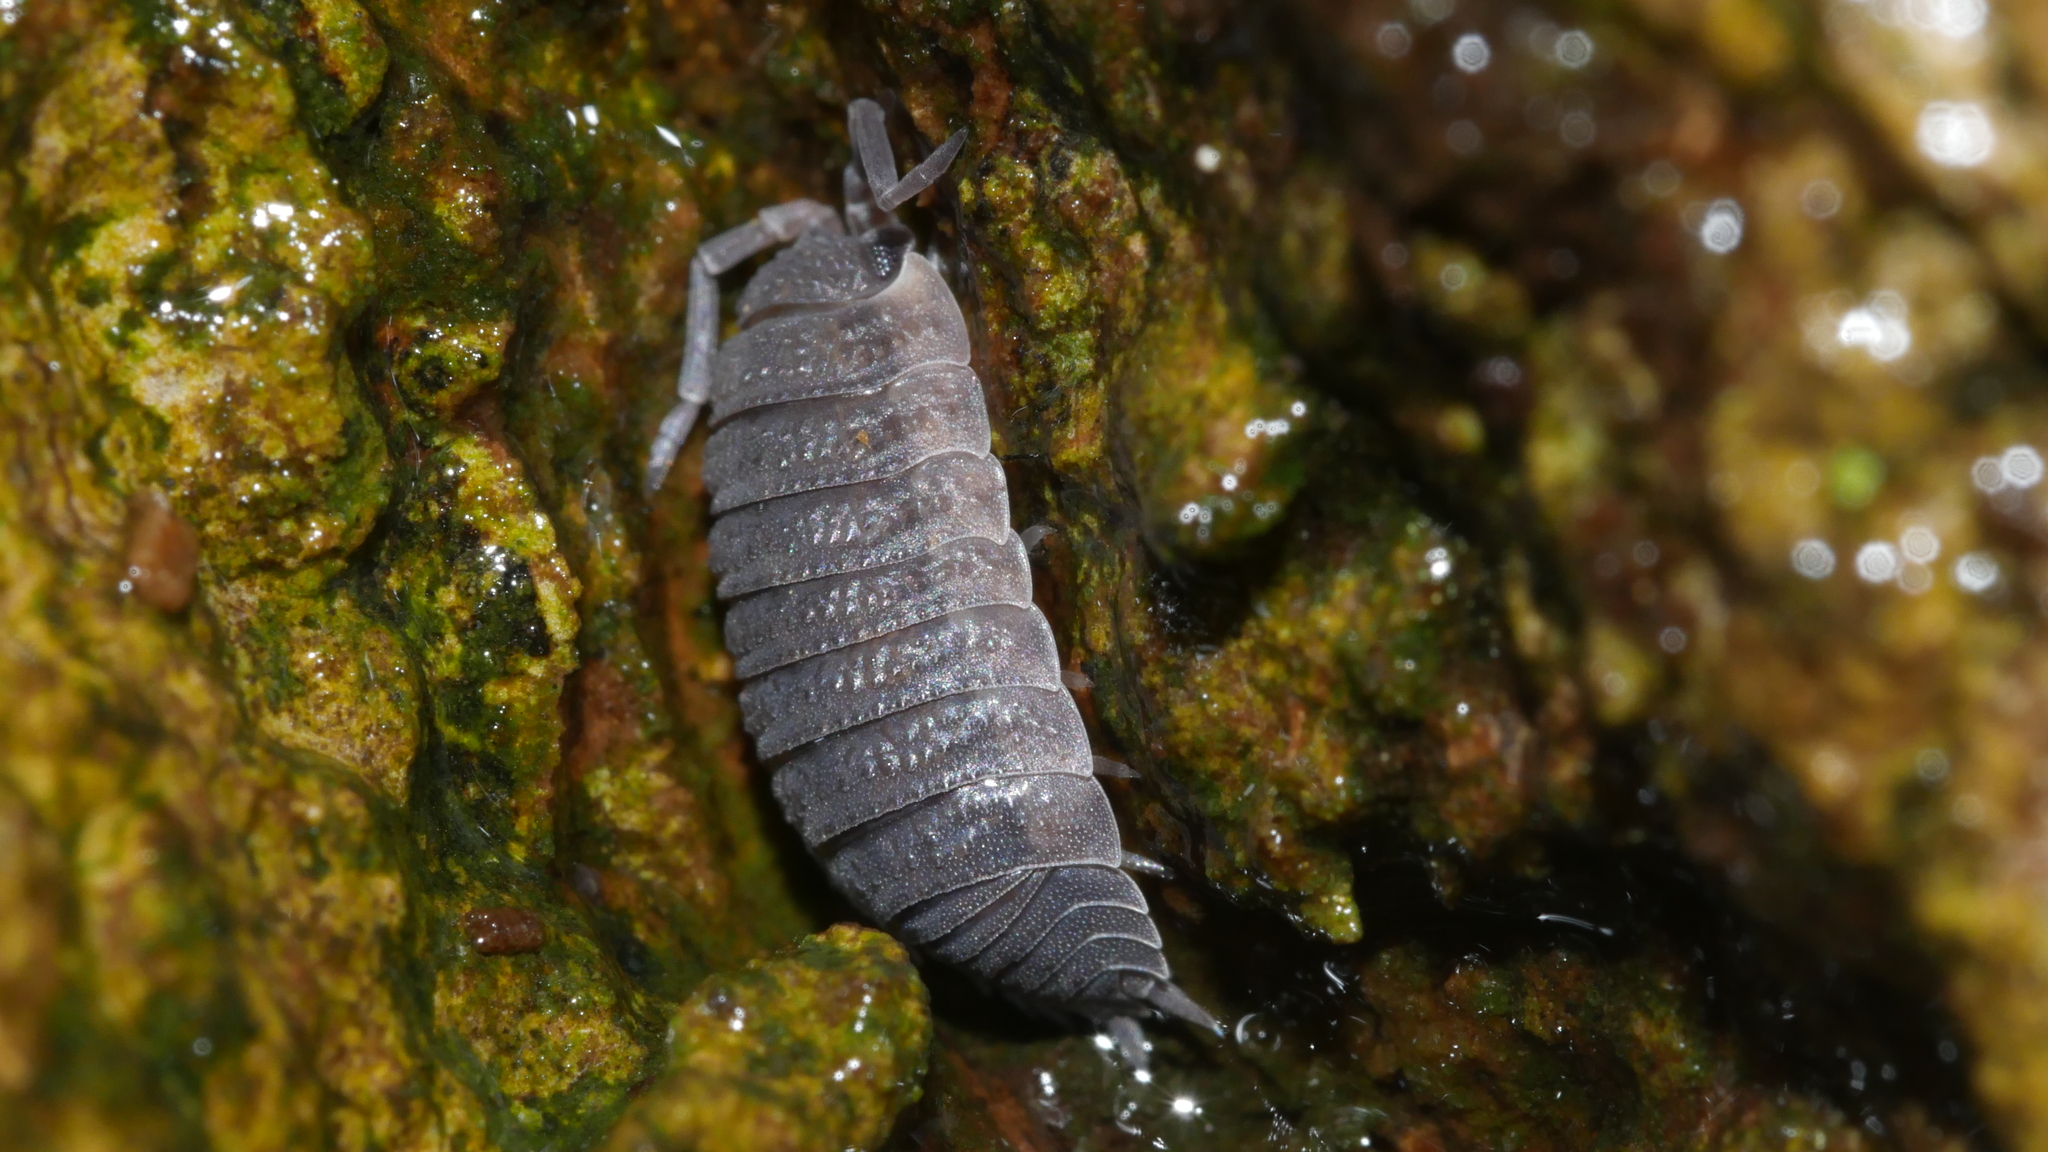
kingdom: Animalia
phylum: Arthropoda
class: Malacostraca
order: Isopoda
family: Porcellionidae
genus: Porcellio
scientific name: Porcellio scaber
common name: Common rough woodlouse
